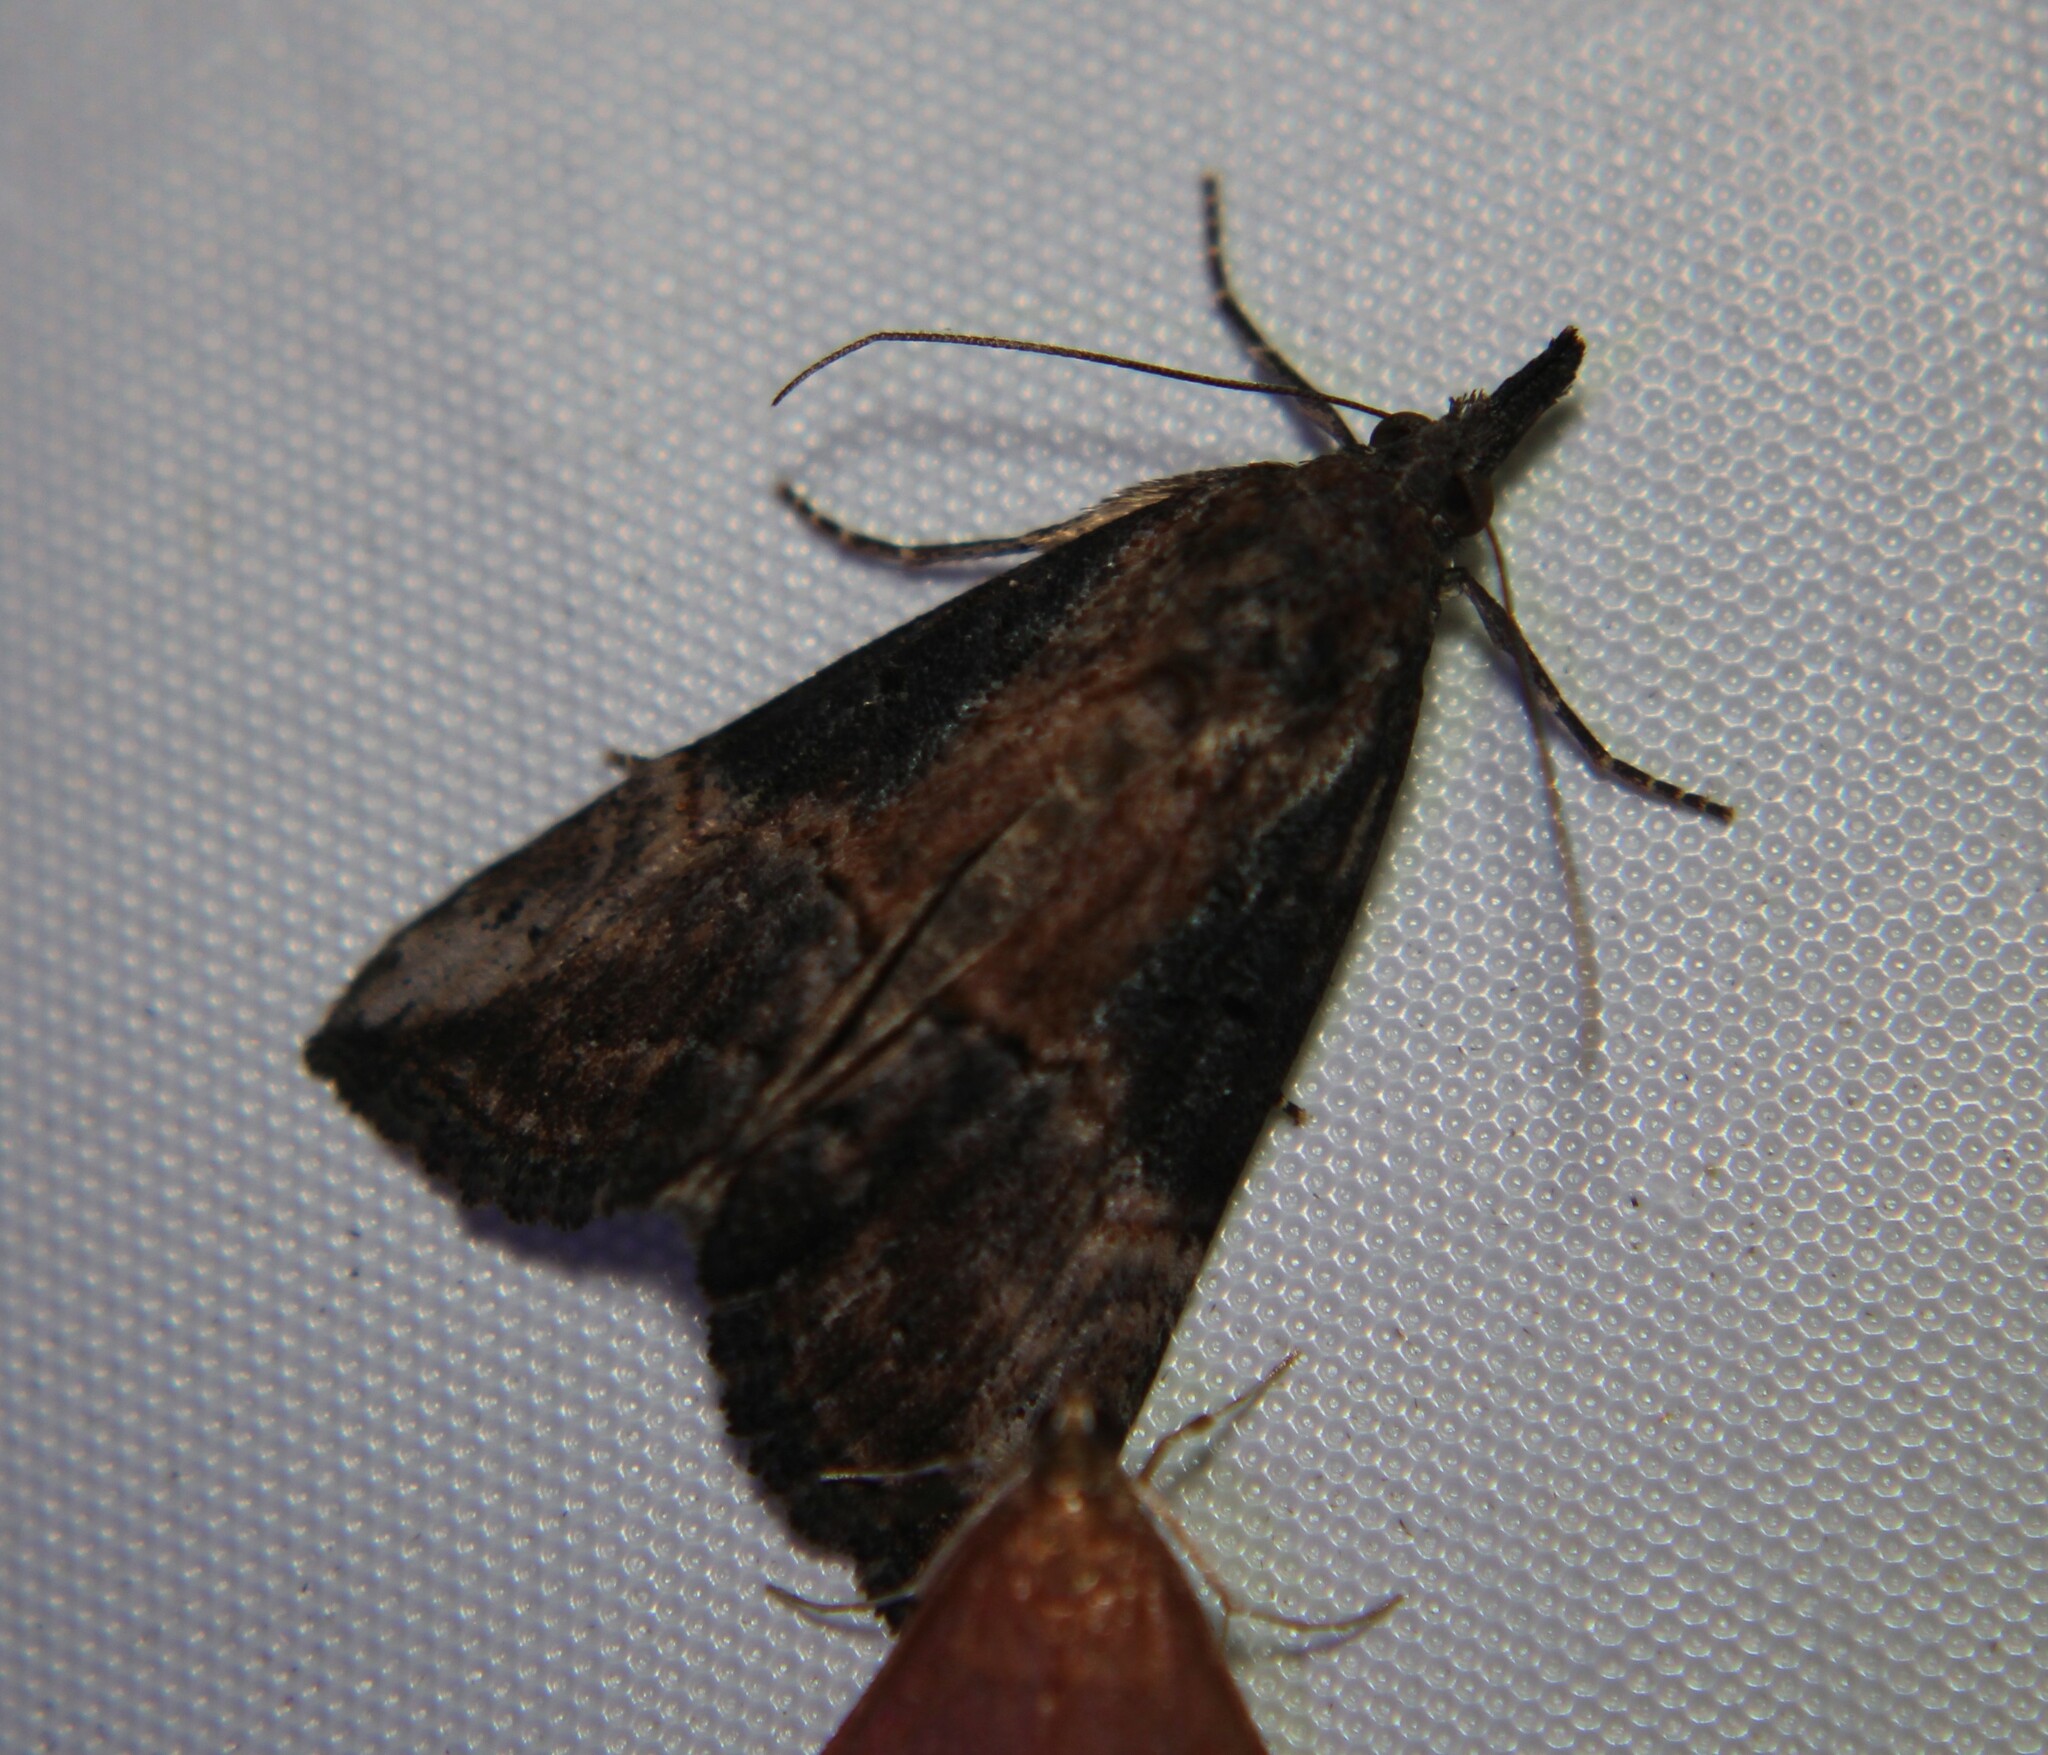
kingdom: Animalia
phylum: Arthropoda
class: Insecta
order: Lepidoptera
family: Erebidae
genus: Hypena
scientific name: Hypena scabra
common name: Green cloverworm
